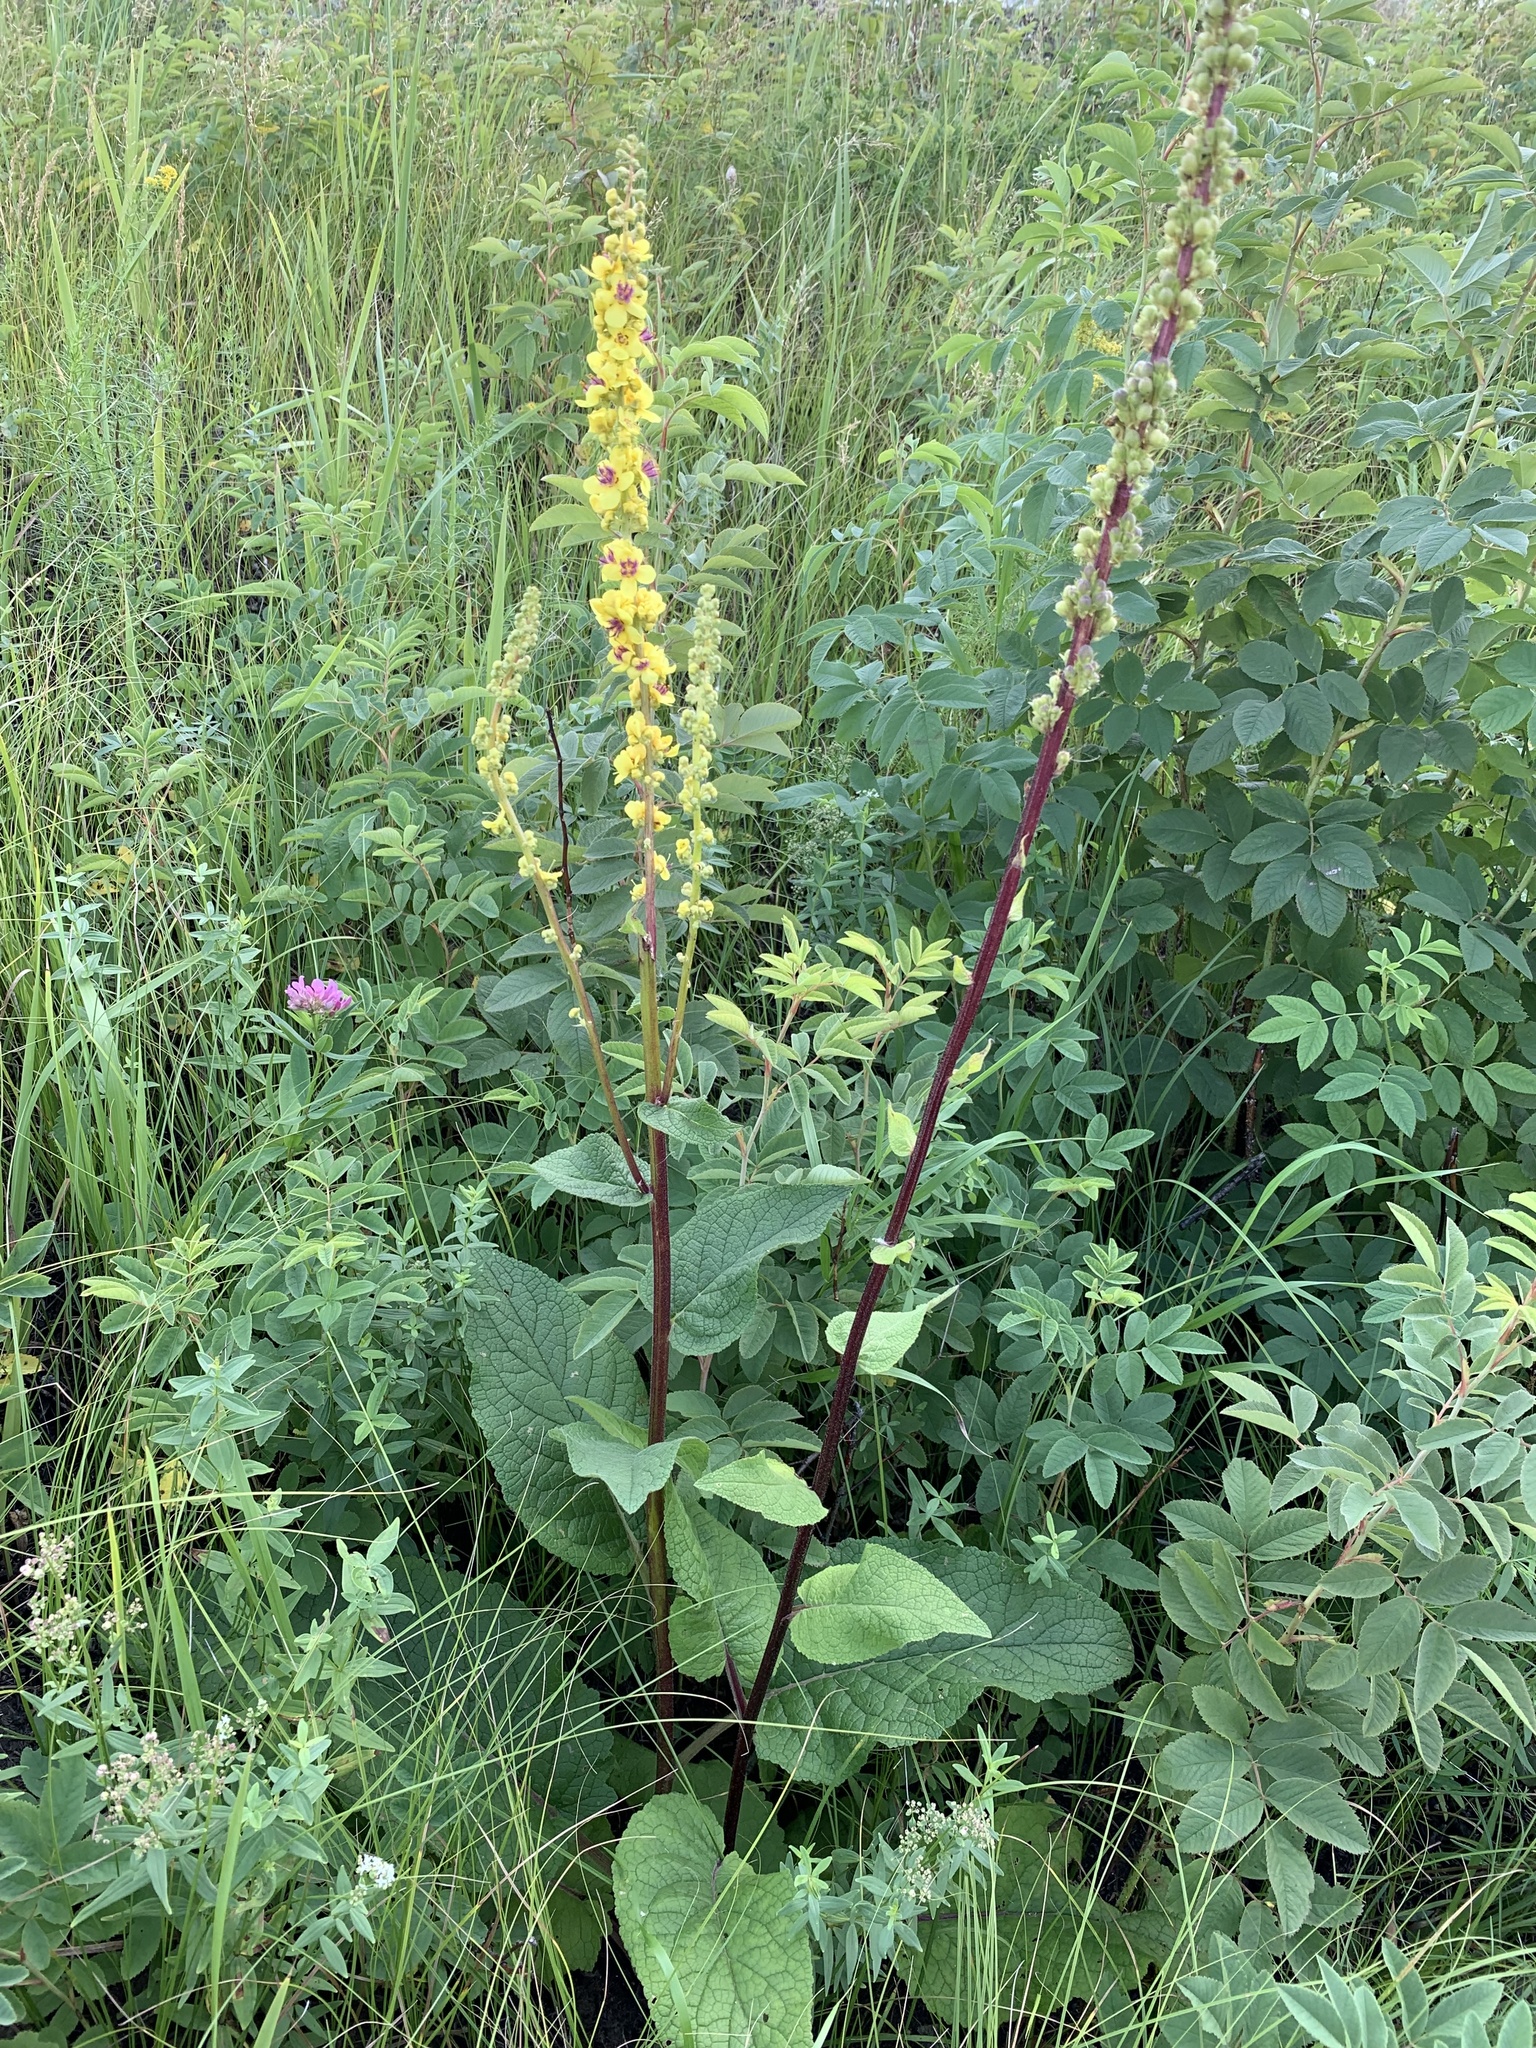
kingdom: Plantae
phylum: Tracheophyta
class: Magnoliopsida
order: Lamiales
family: Scrophulariaceae
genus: Verbascum
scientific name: Verbascum nigrum
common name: Dark mullein
